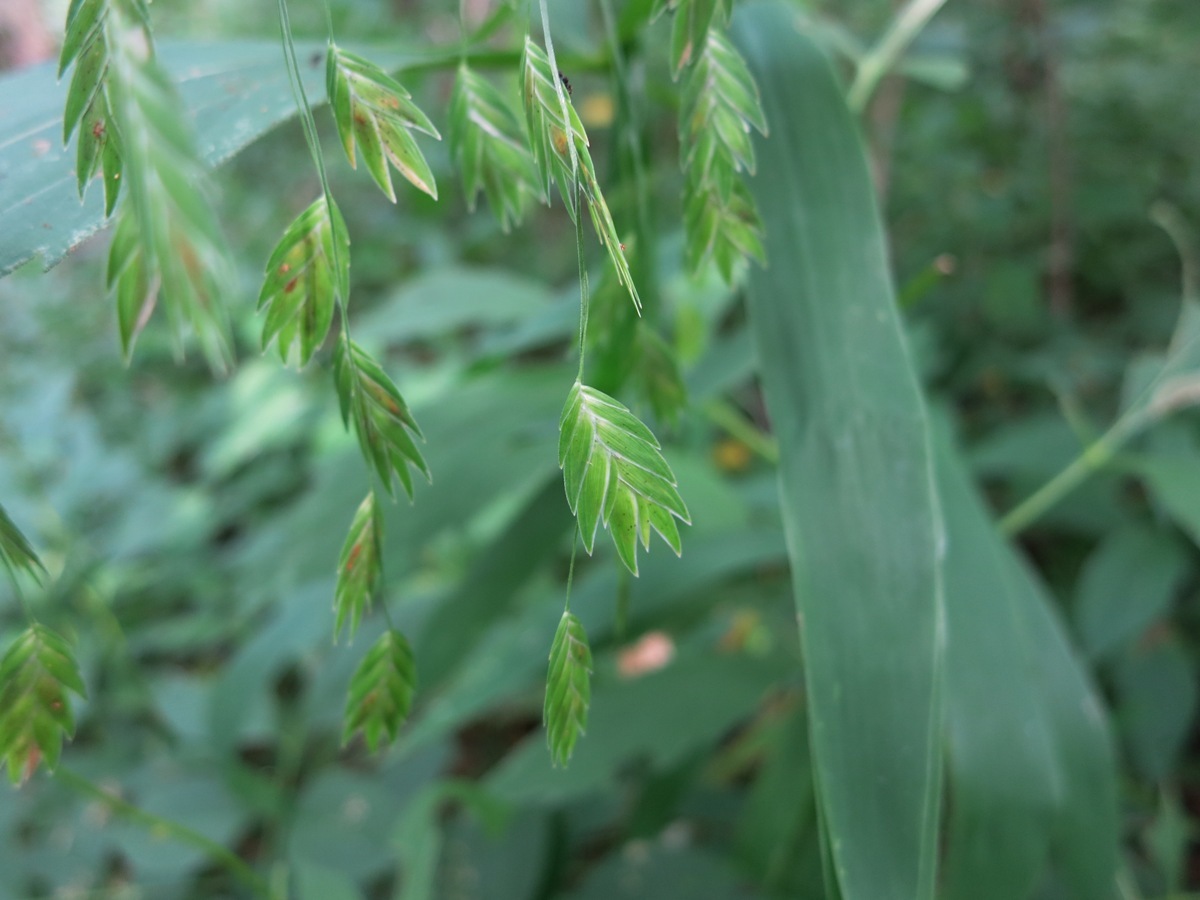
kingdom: Plantae
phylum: Tracheophyta
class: Liliopsida
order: Poales
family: Poaceae
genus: Chasmanthium
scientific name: Chasmanthium latifolium
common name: Broad-leaved chasmanthium
